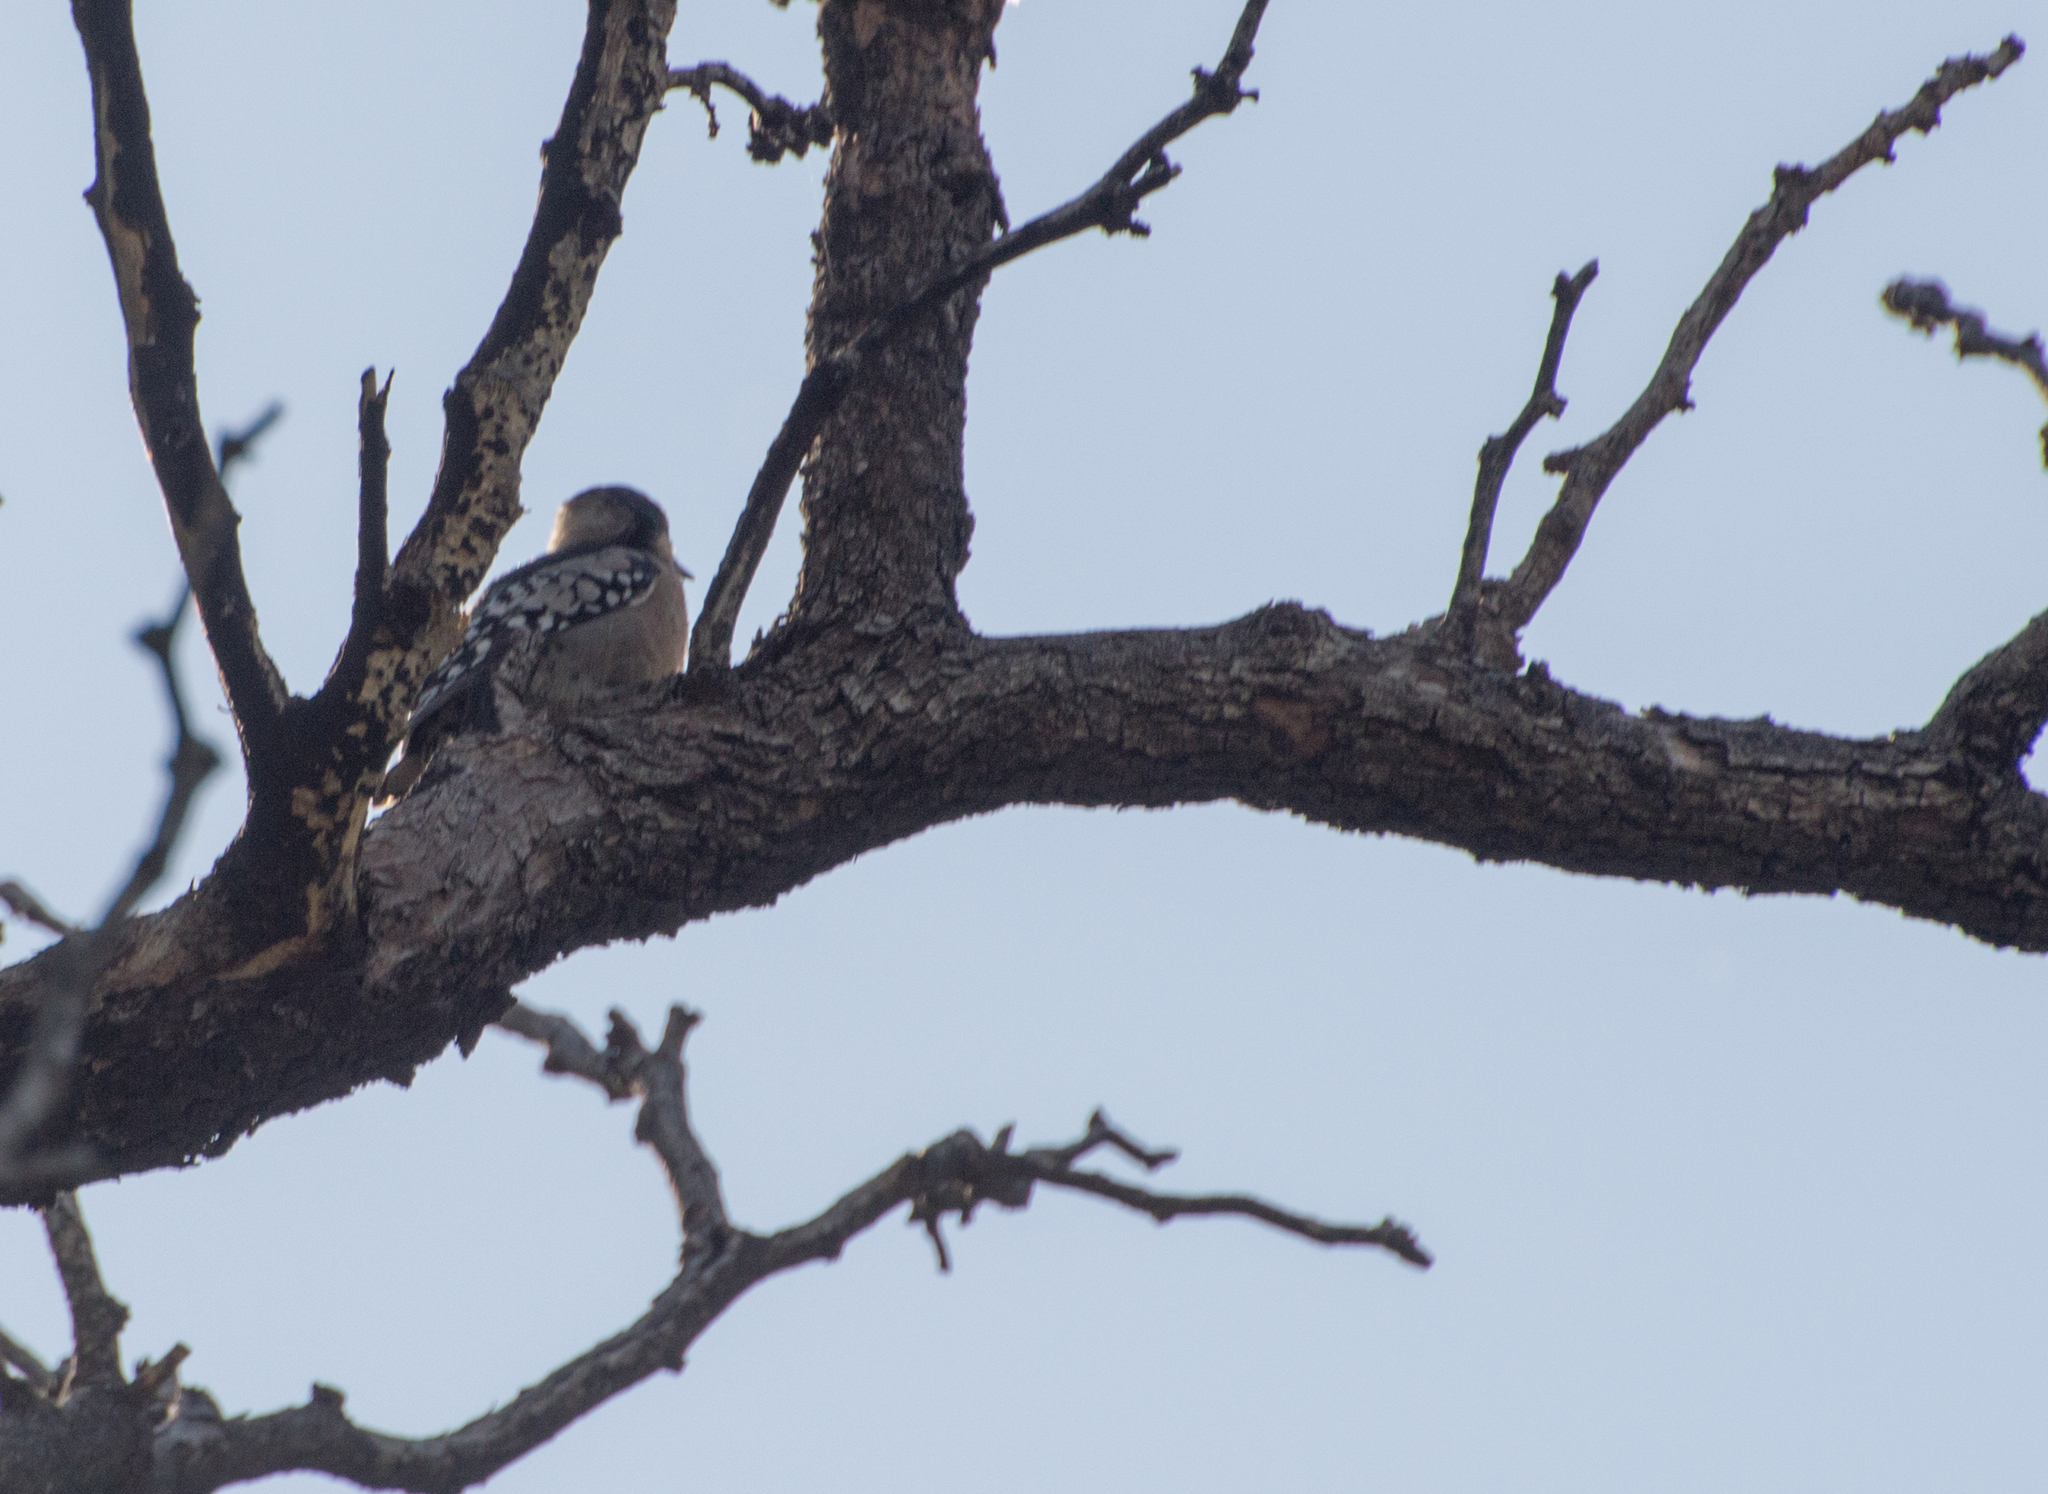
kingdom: Animalia
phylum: Chordata
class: Aves
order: Piciformes
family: Picidae
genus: Melanerpes
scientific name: Melanerpes cactorum
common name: White-fronted woodpecker
